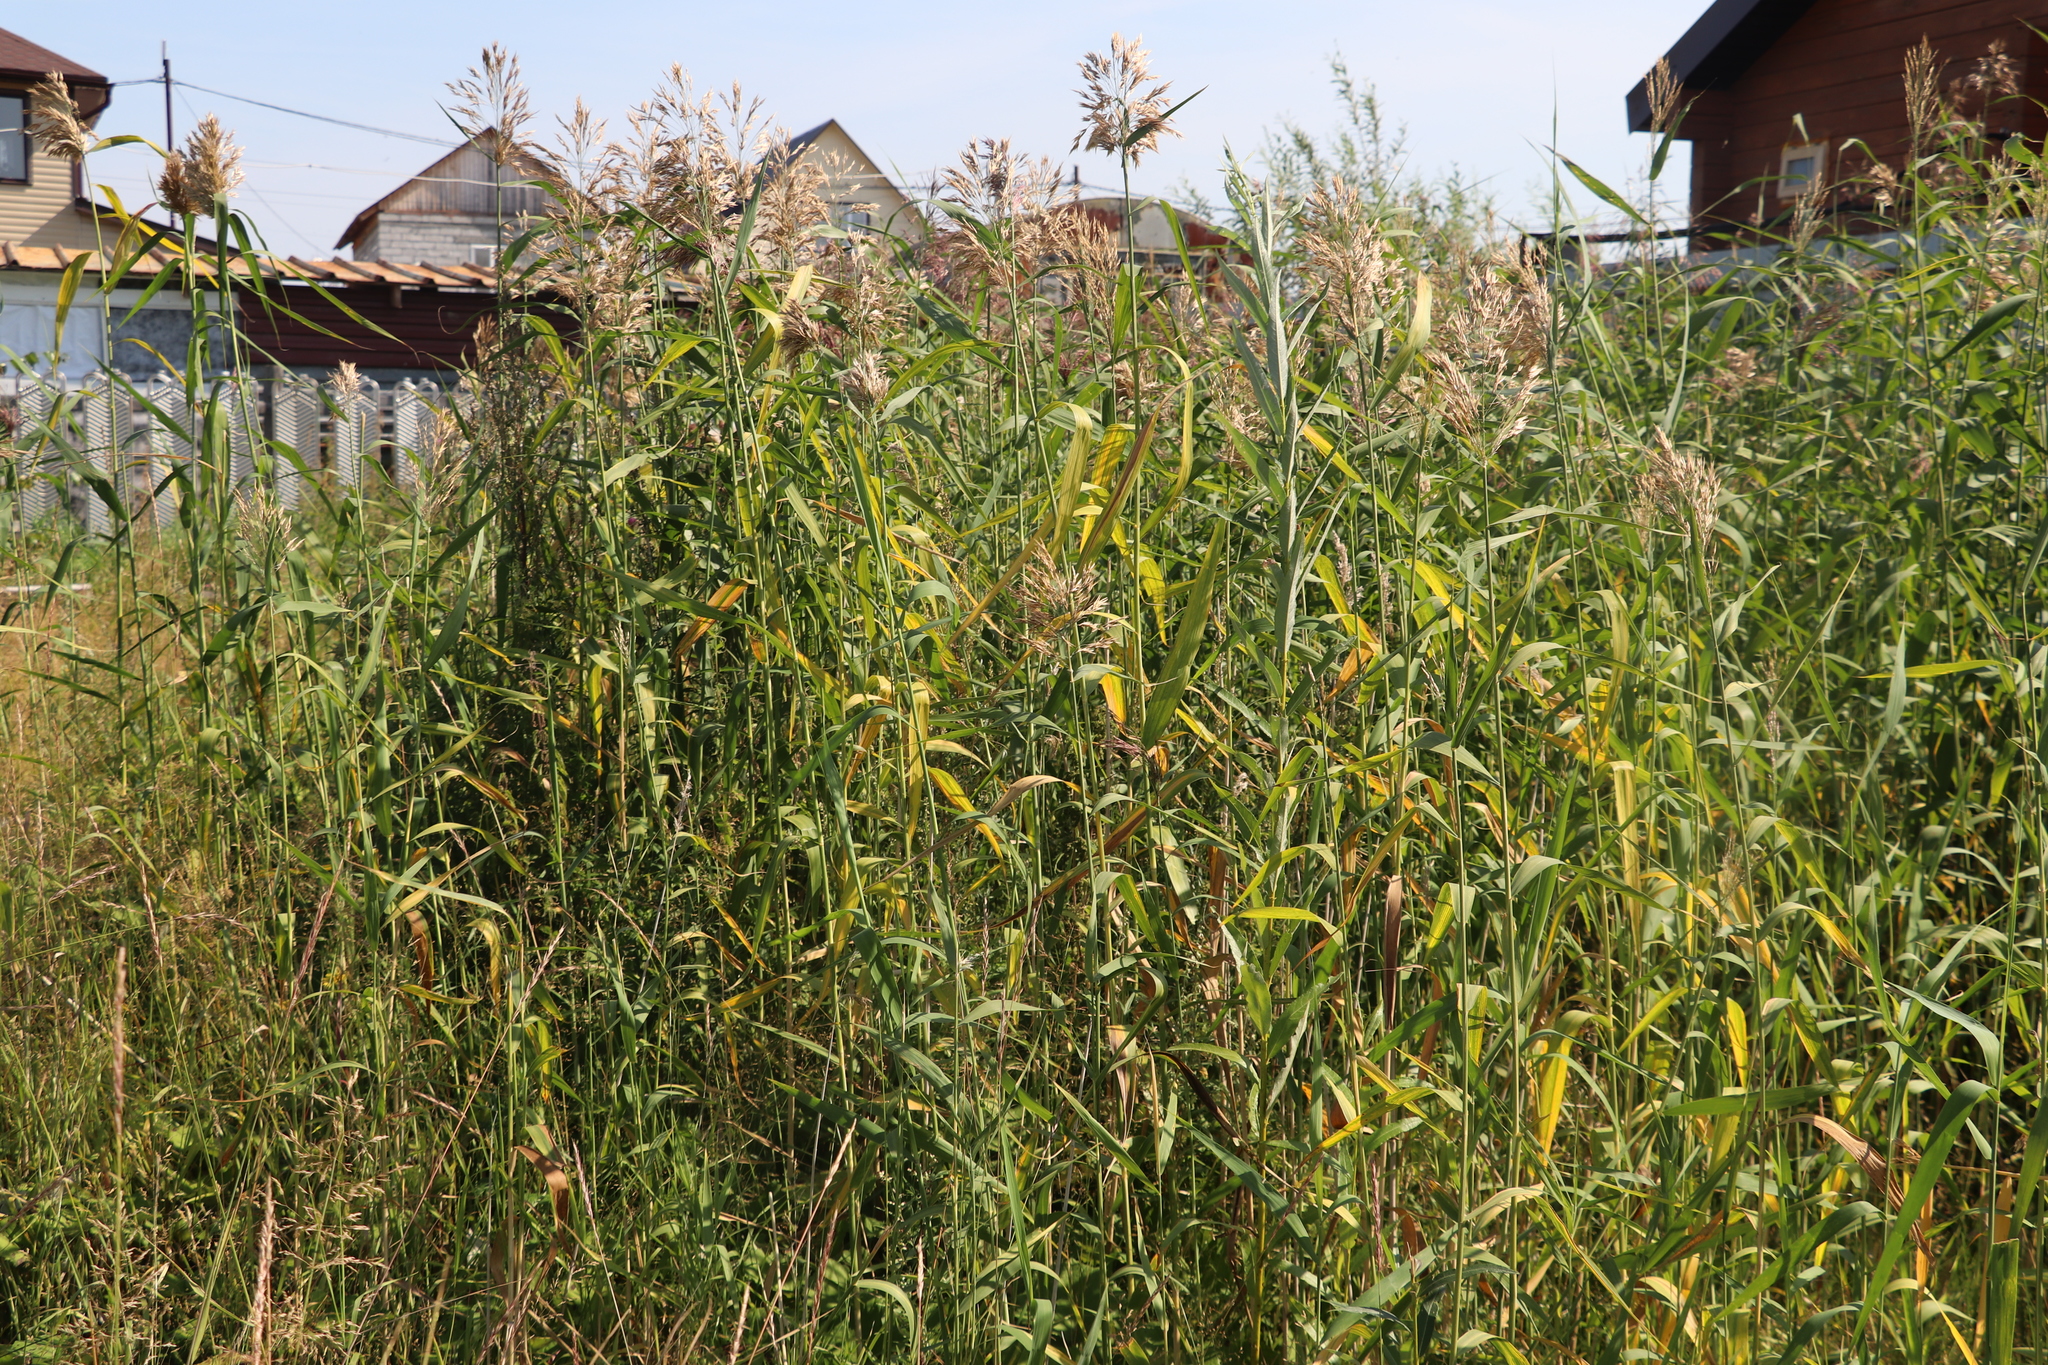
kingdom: Plantae
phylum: Tracheophyta
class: Liliopsida
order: Poales
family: Poaceae
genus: Phragmites
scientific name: Phragmites australis
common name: Common reed
